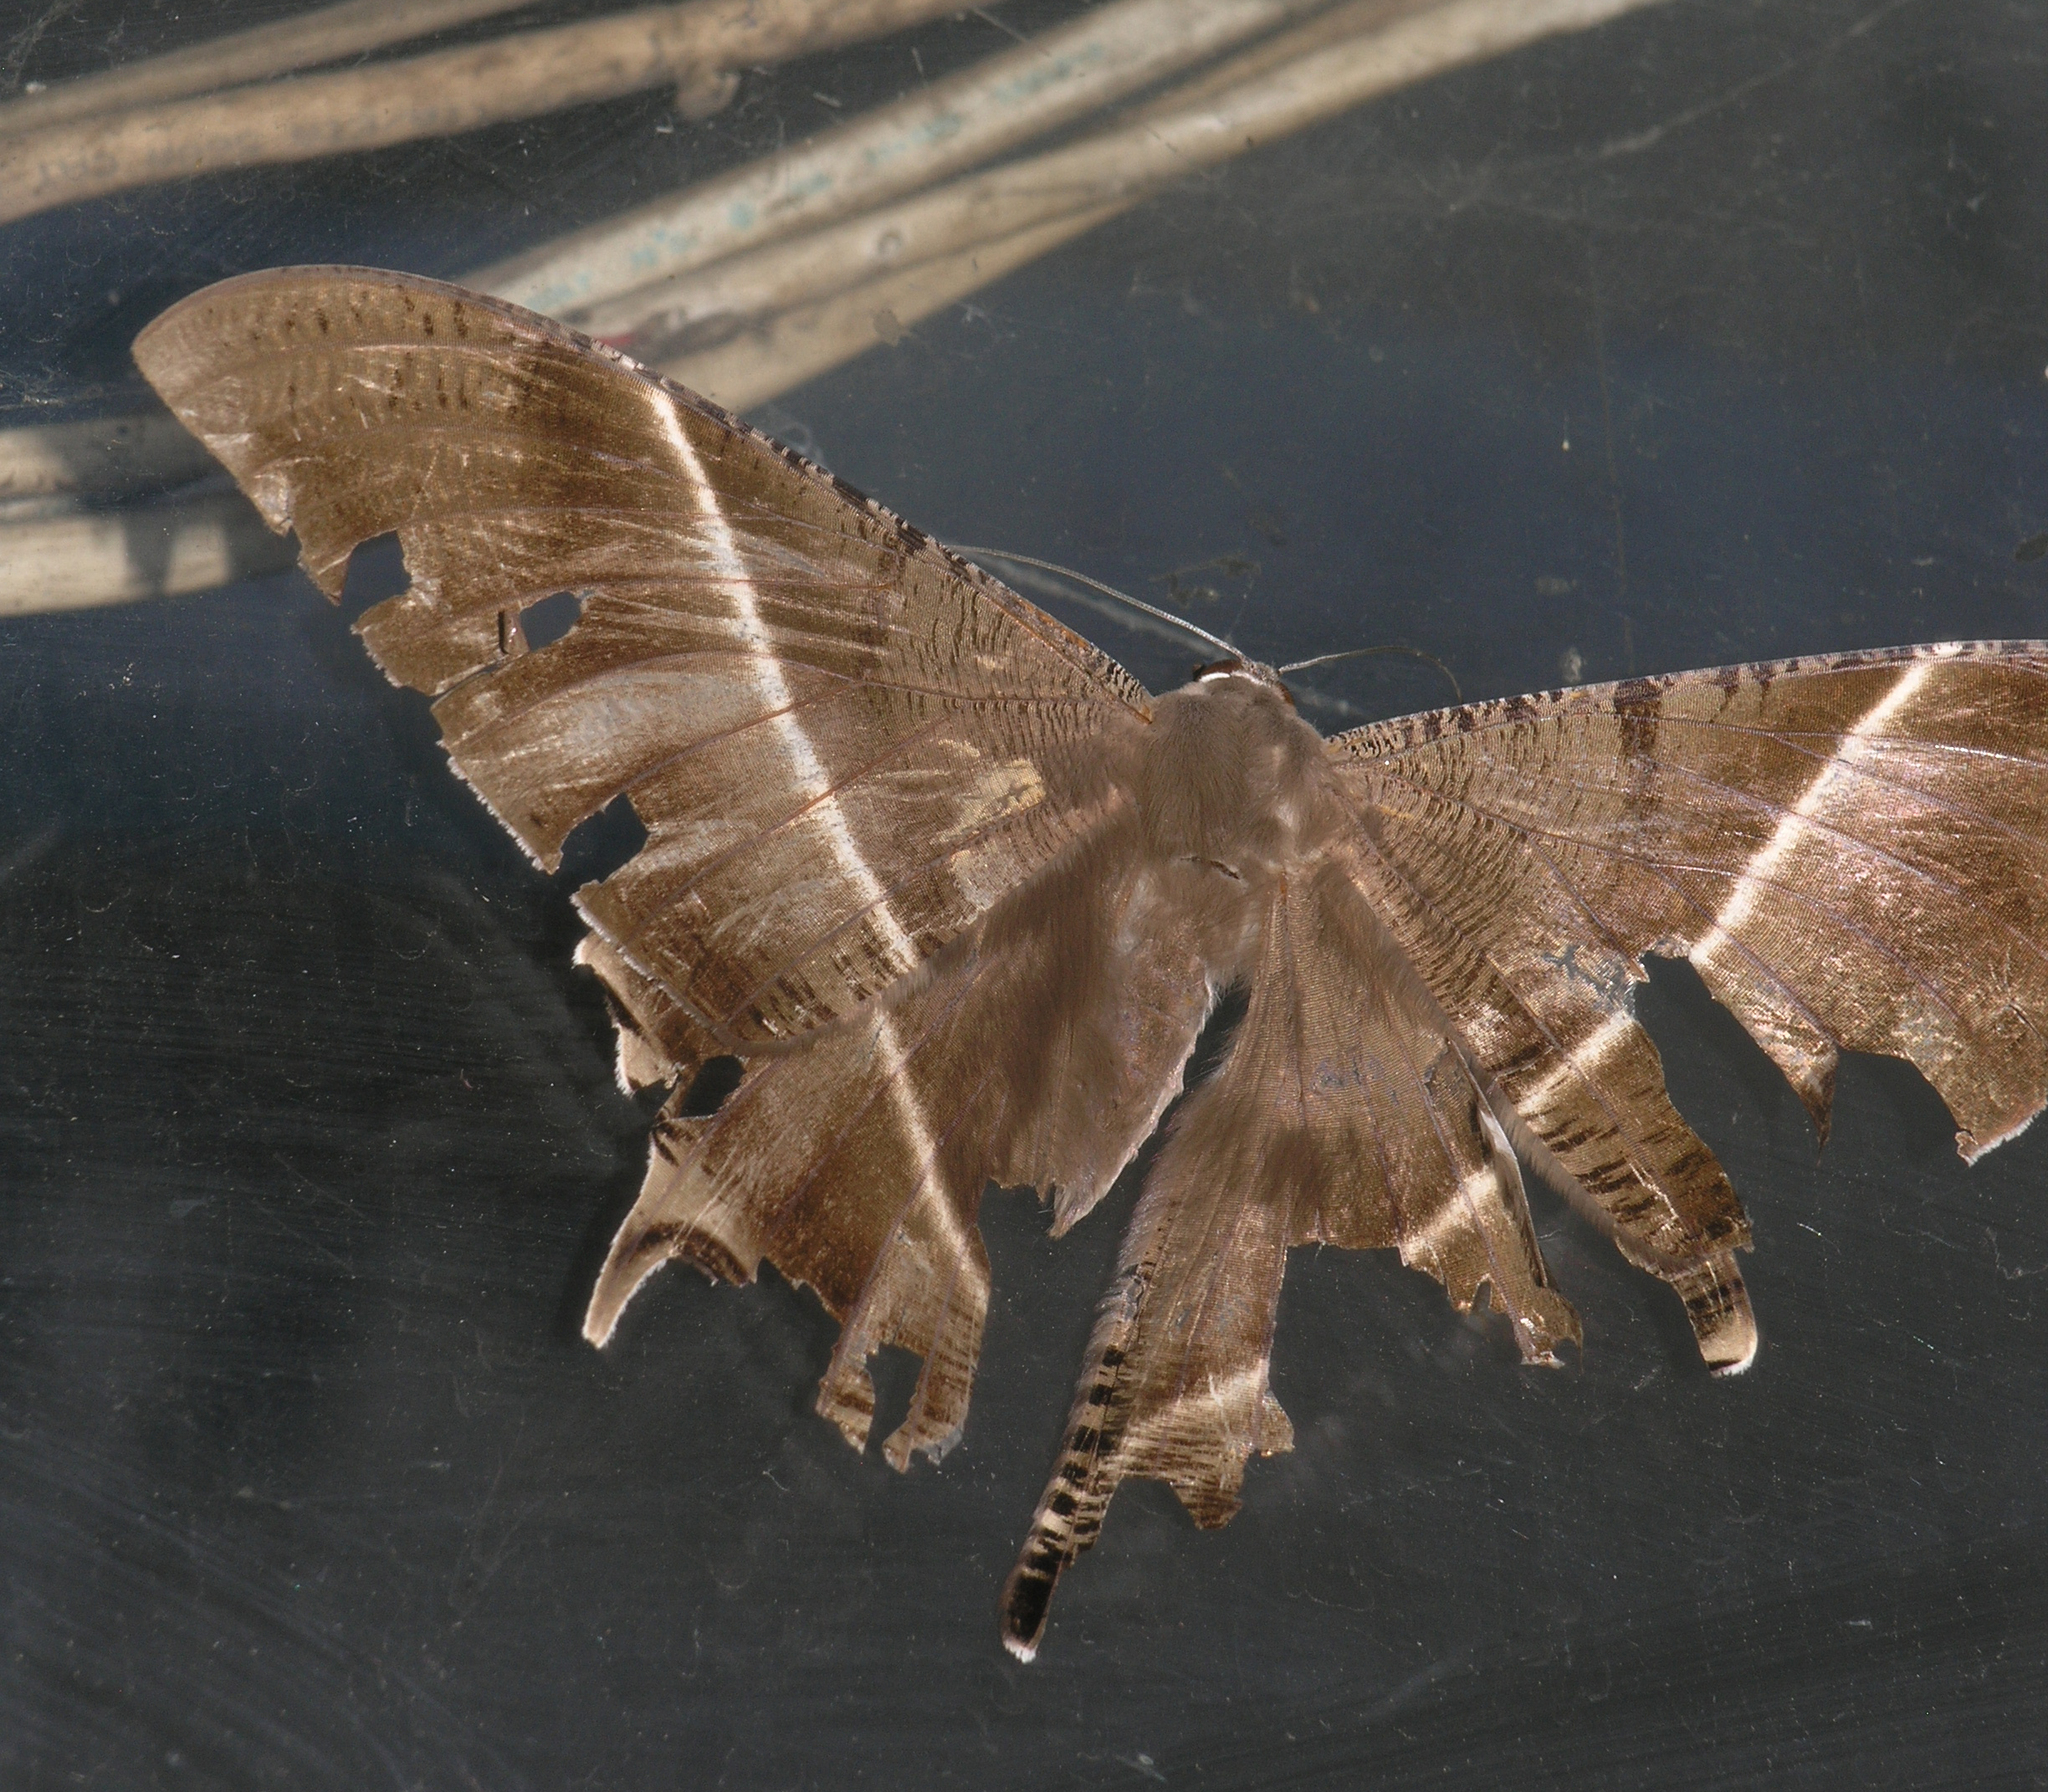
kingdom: Animalia
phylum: Arthropoda
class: Insecta
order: Lepidoptera
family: Uraniidae
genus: Lyssa
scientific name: Lyssa zampa
